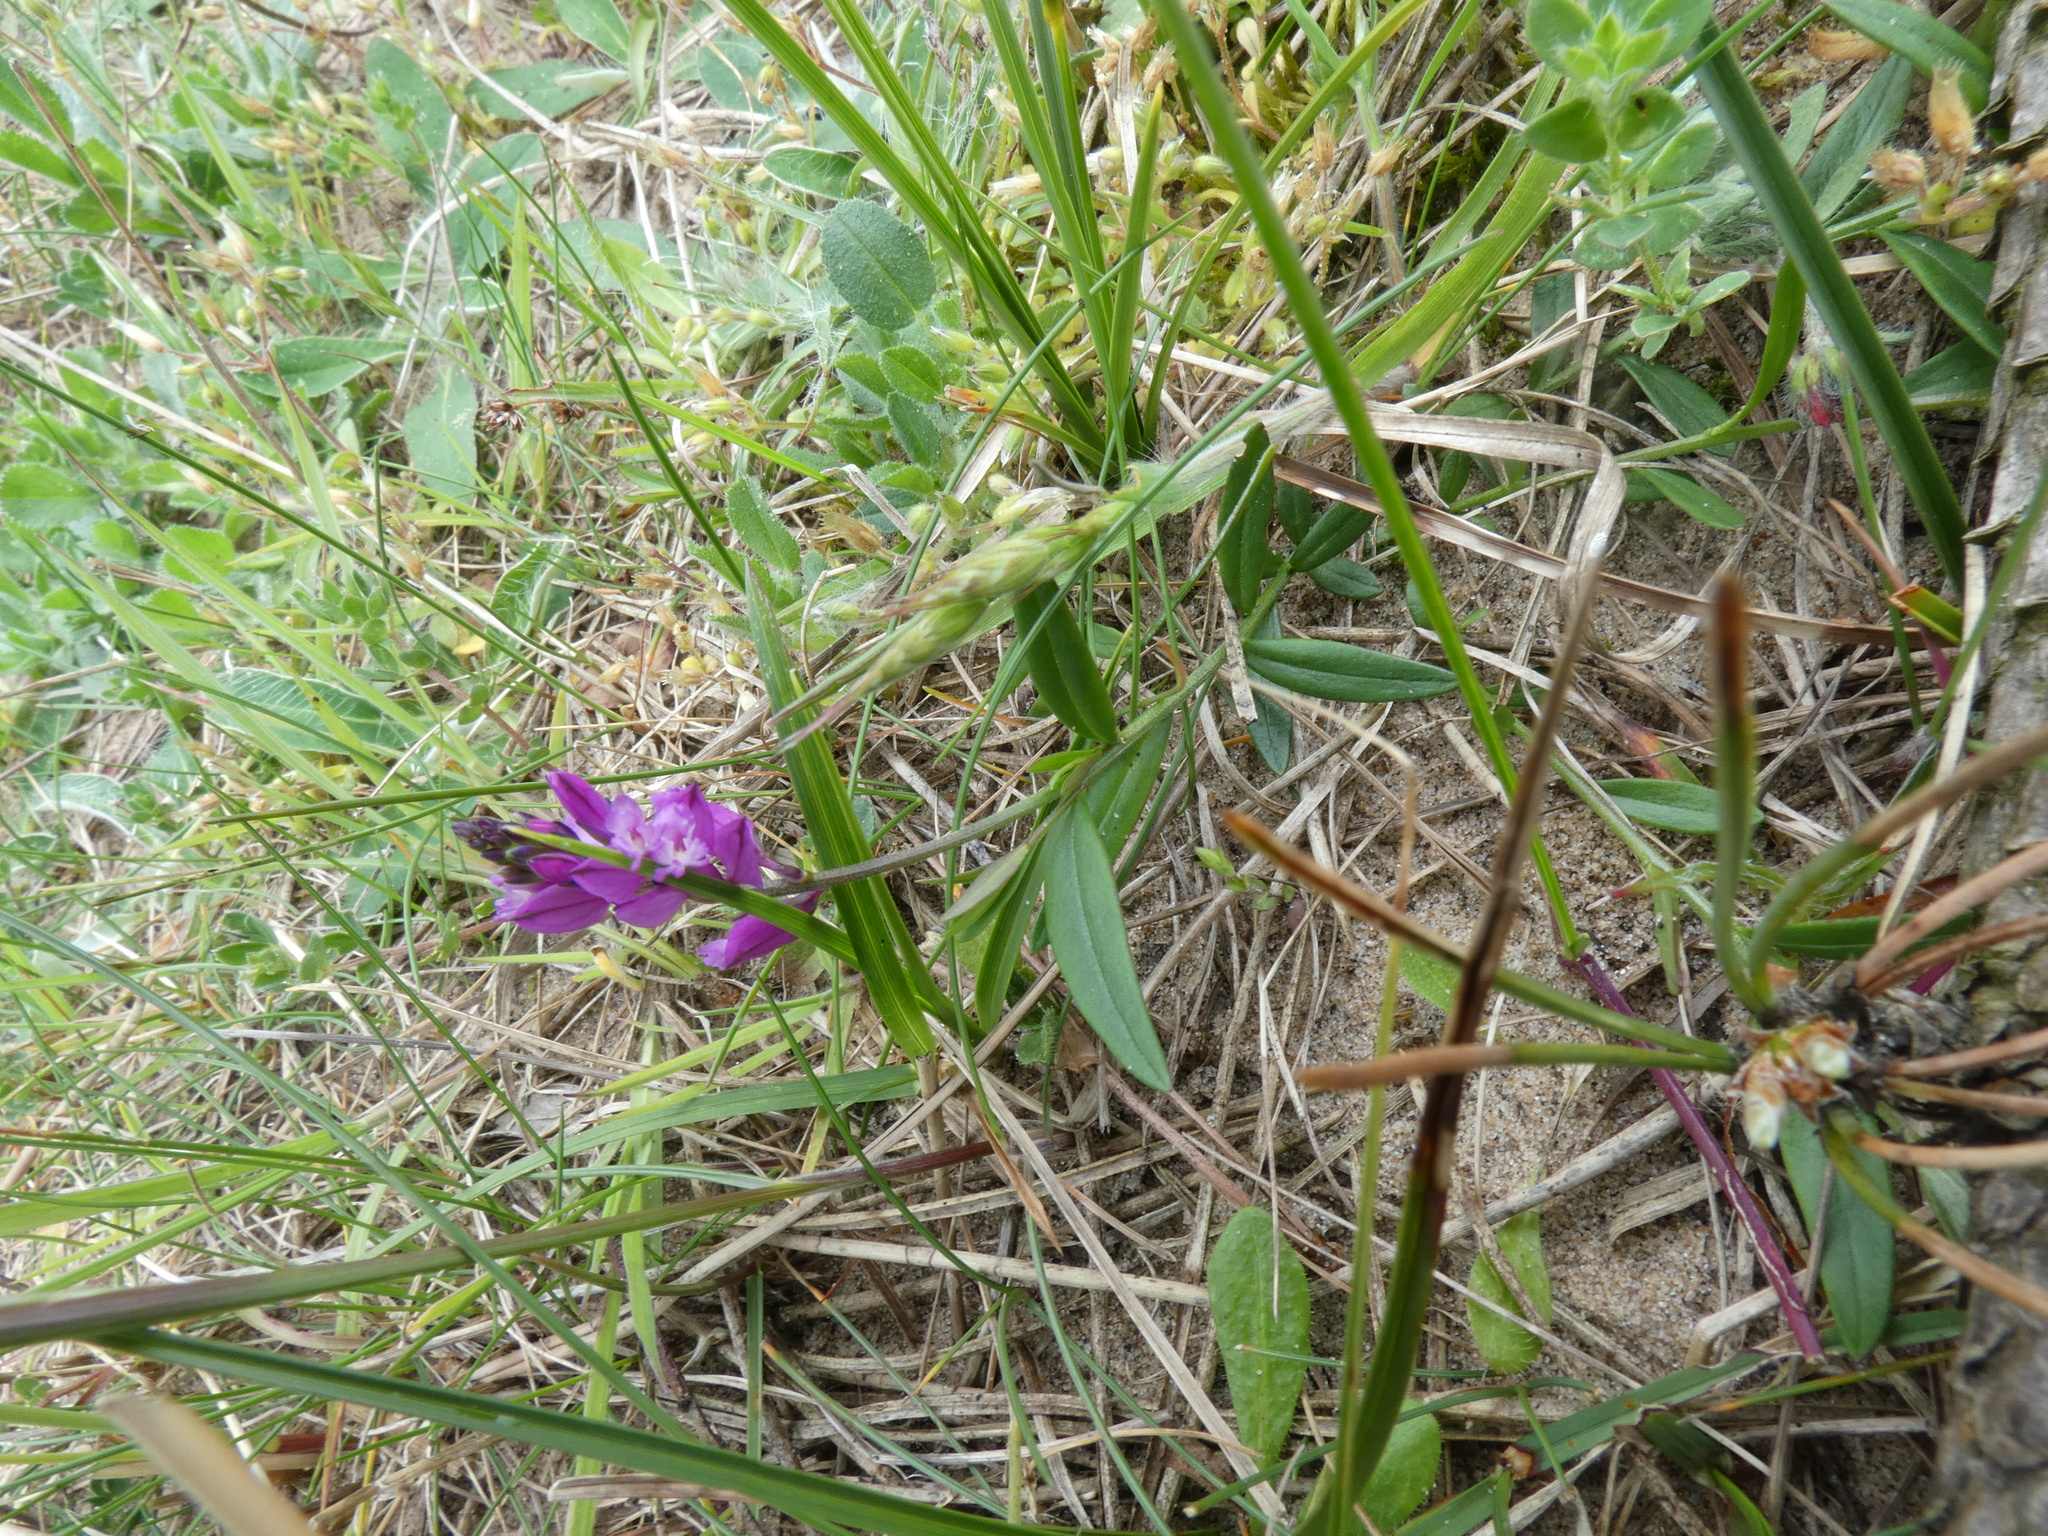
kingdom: Plantae
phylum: Tracheophyta
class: Magnoliopsida
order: Fabales
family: Polygalaceae
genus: Polygala
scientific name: Polygala vulgaris
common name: Common milkwort
